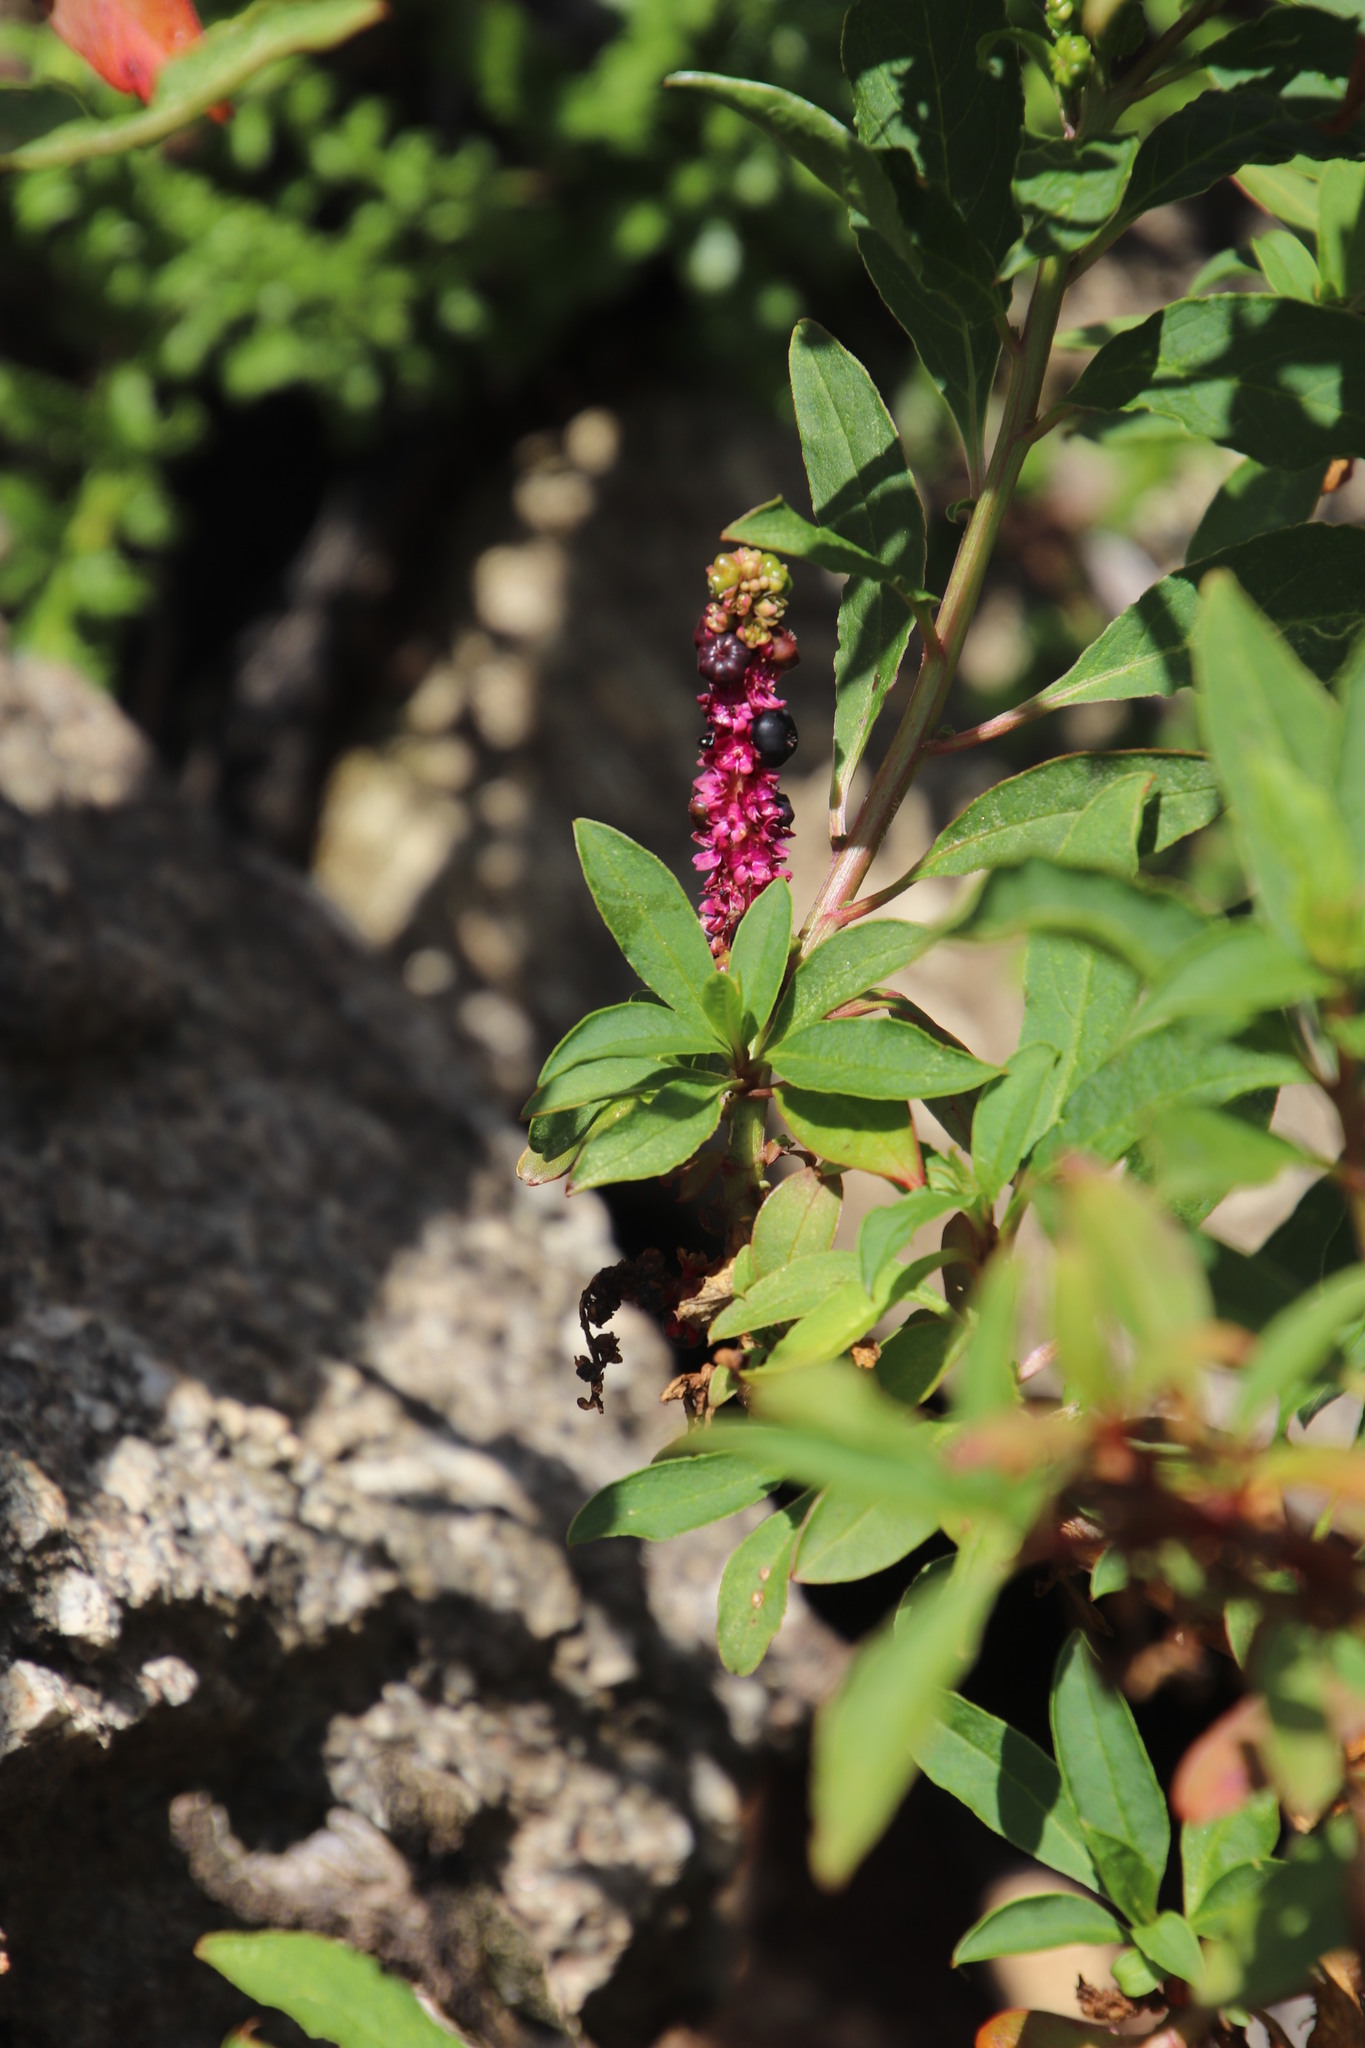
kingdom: Plantae
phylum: Tracheophyta
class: Magnoliopsida
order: Caryophyllales
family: Phytolaccaceae
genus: Phytolacca
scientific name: Phytolacca icosandra
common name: Button pokeweed
